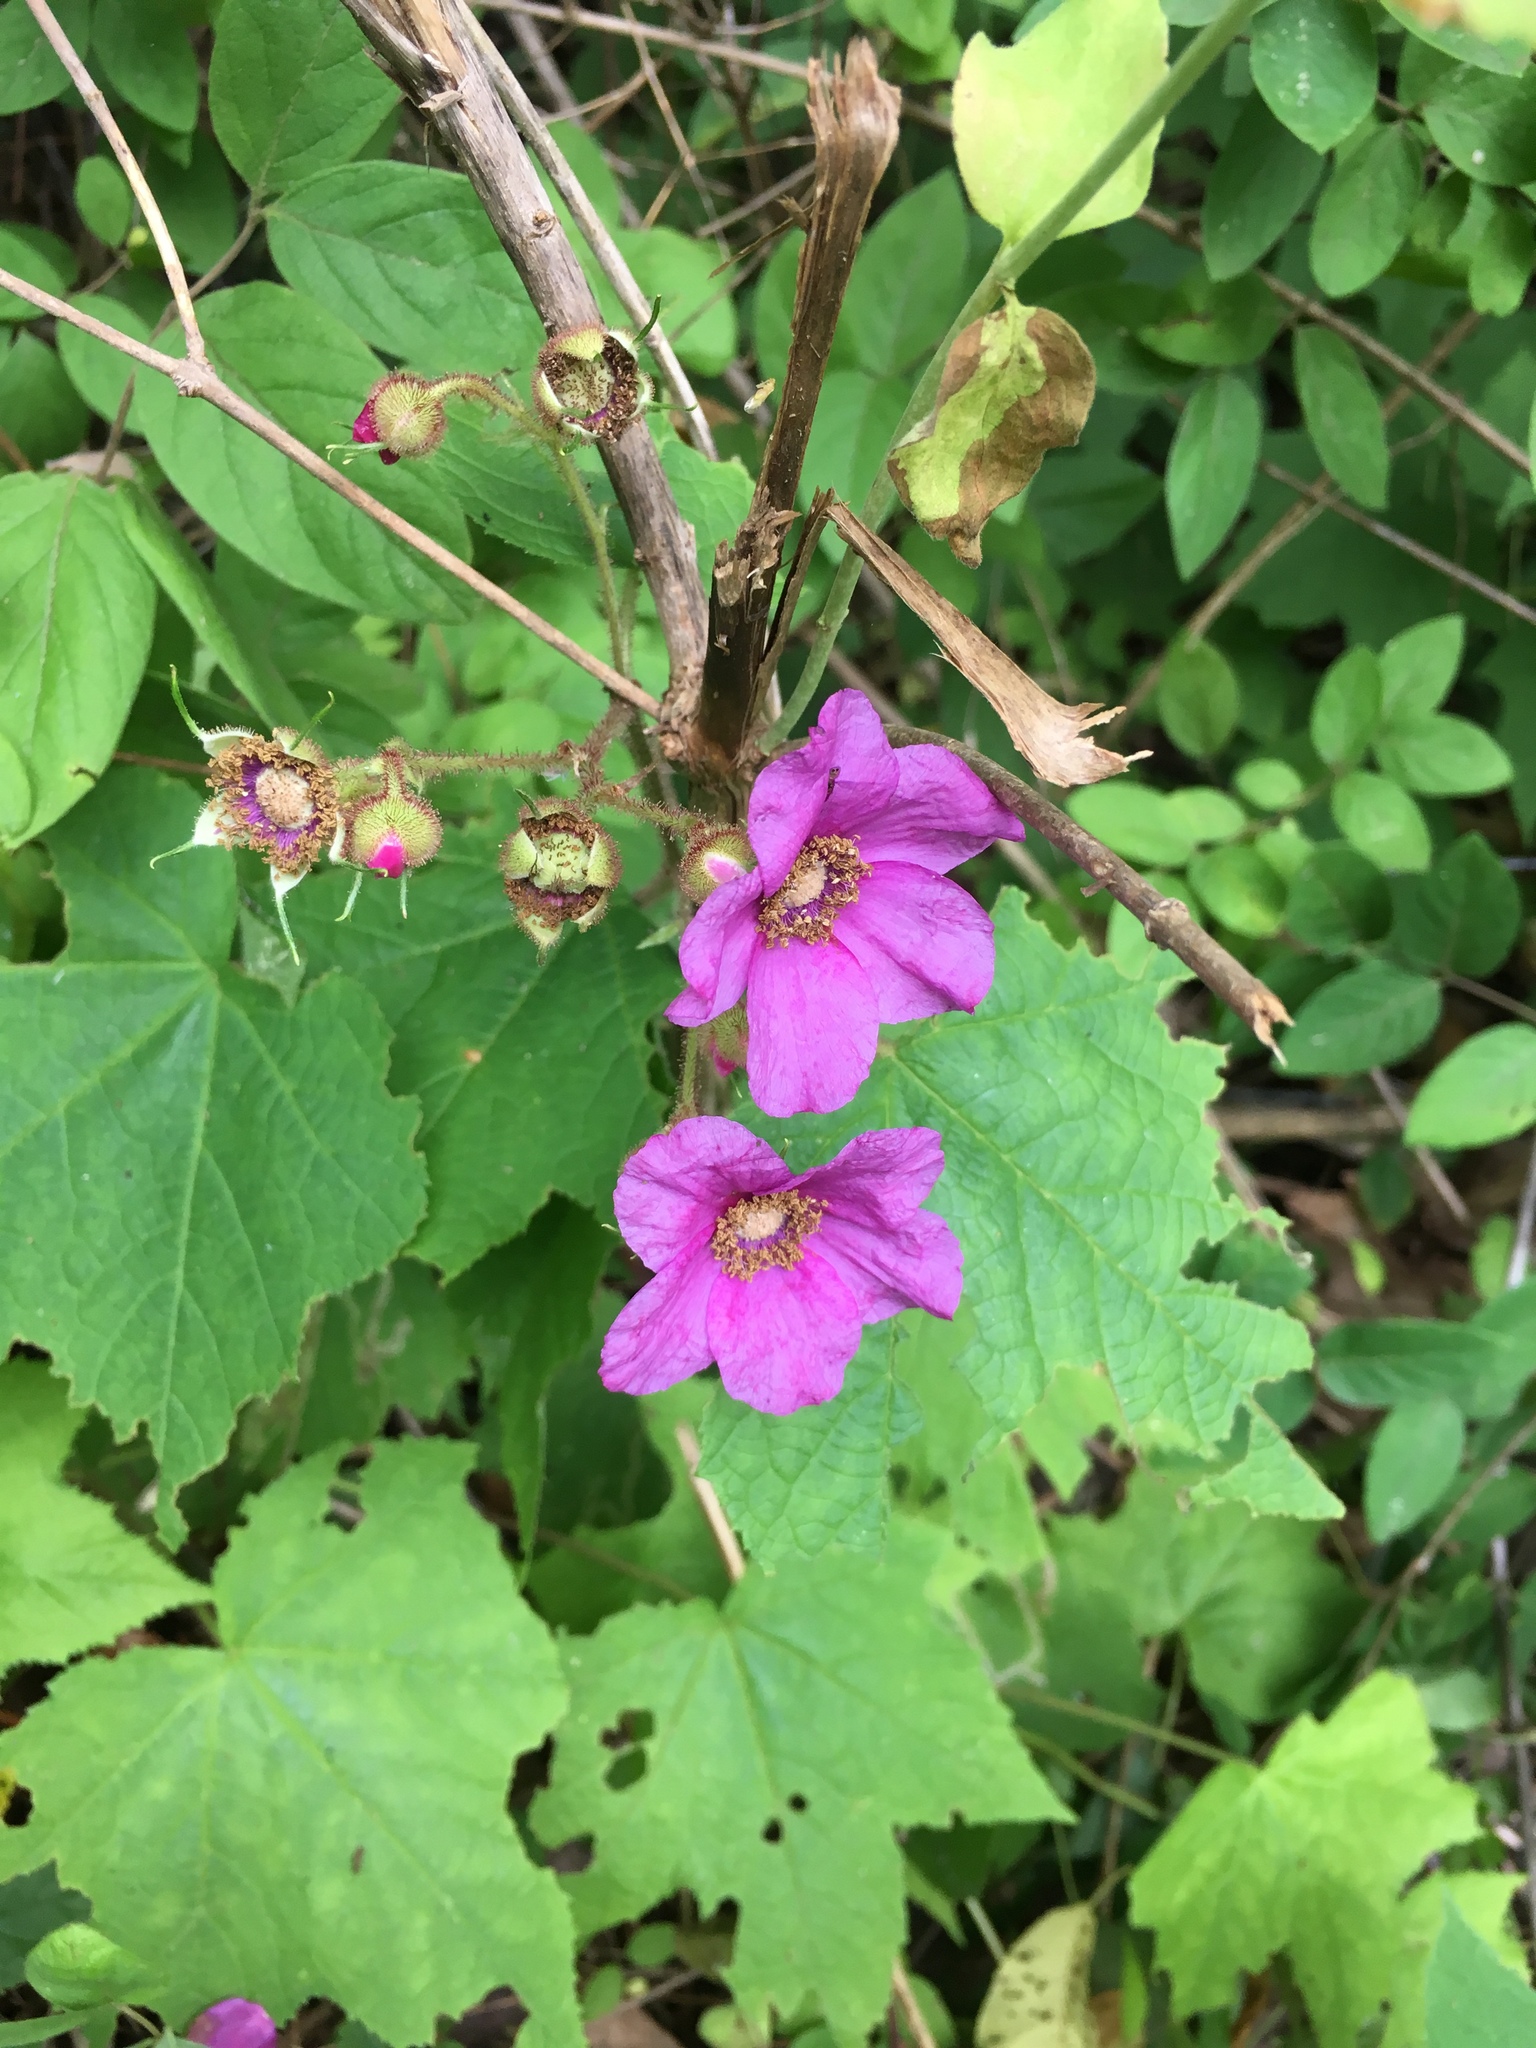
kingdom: Plantae
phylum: Tracheophyta
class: Magnoliopsida
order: Rosales
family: Rosaceae
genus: Rubus
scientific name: Rubus odoratus
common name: Purple-flowered raspberry
